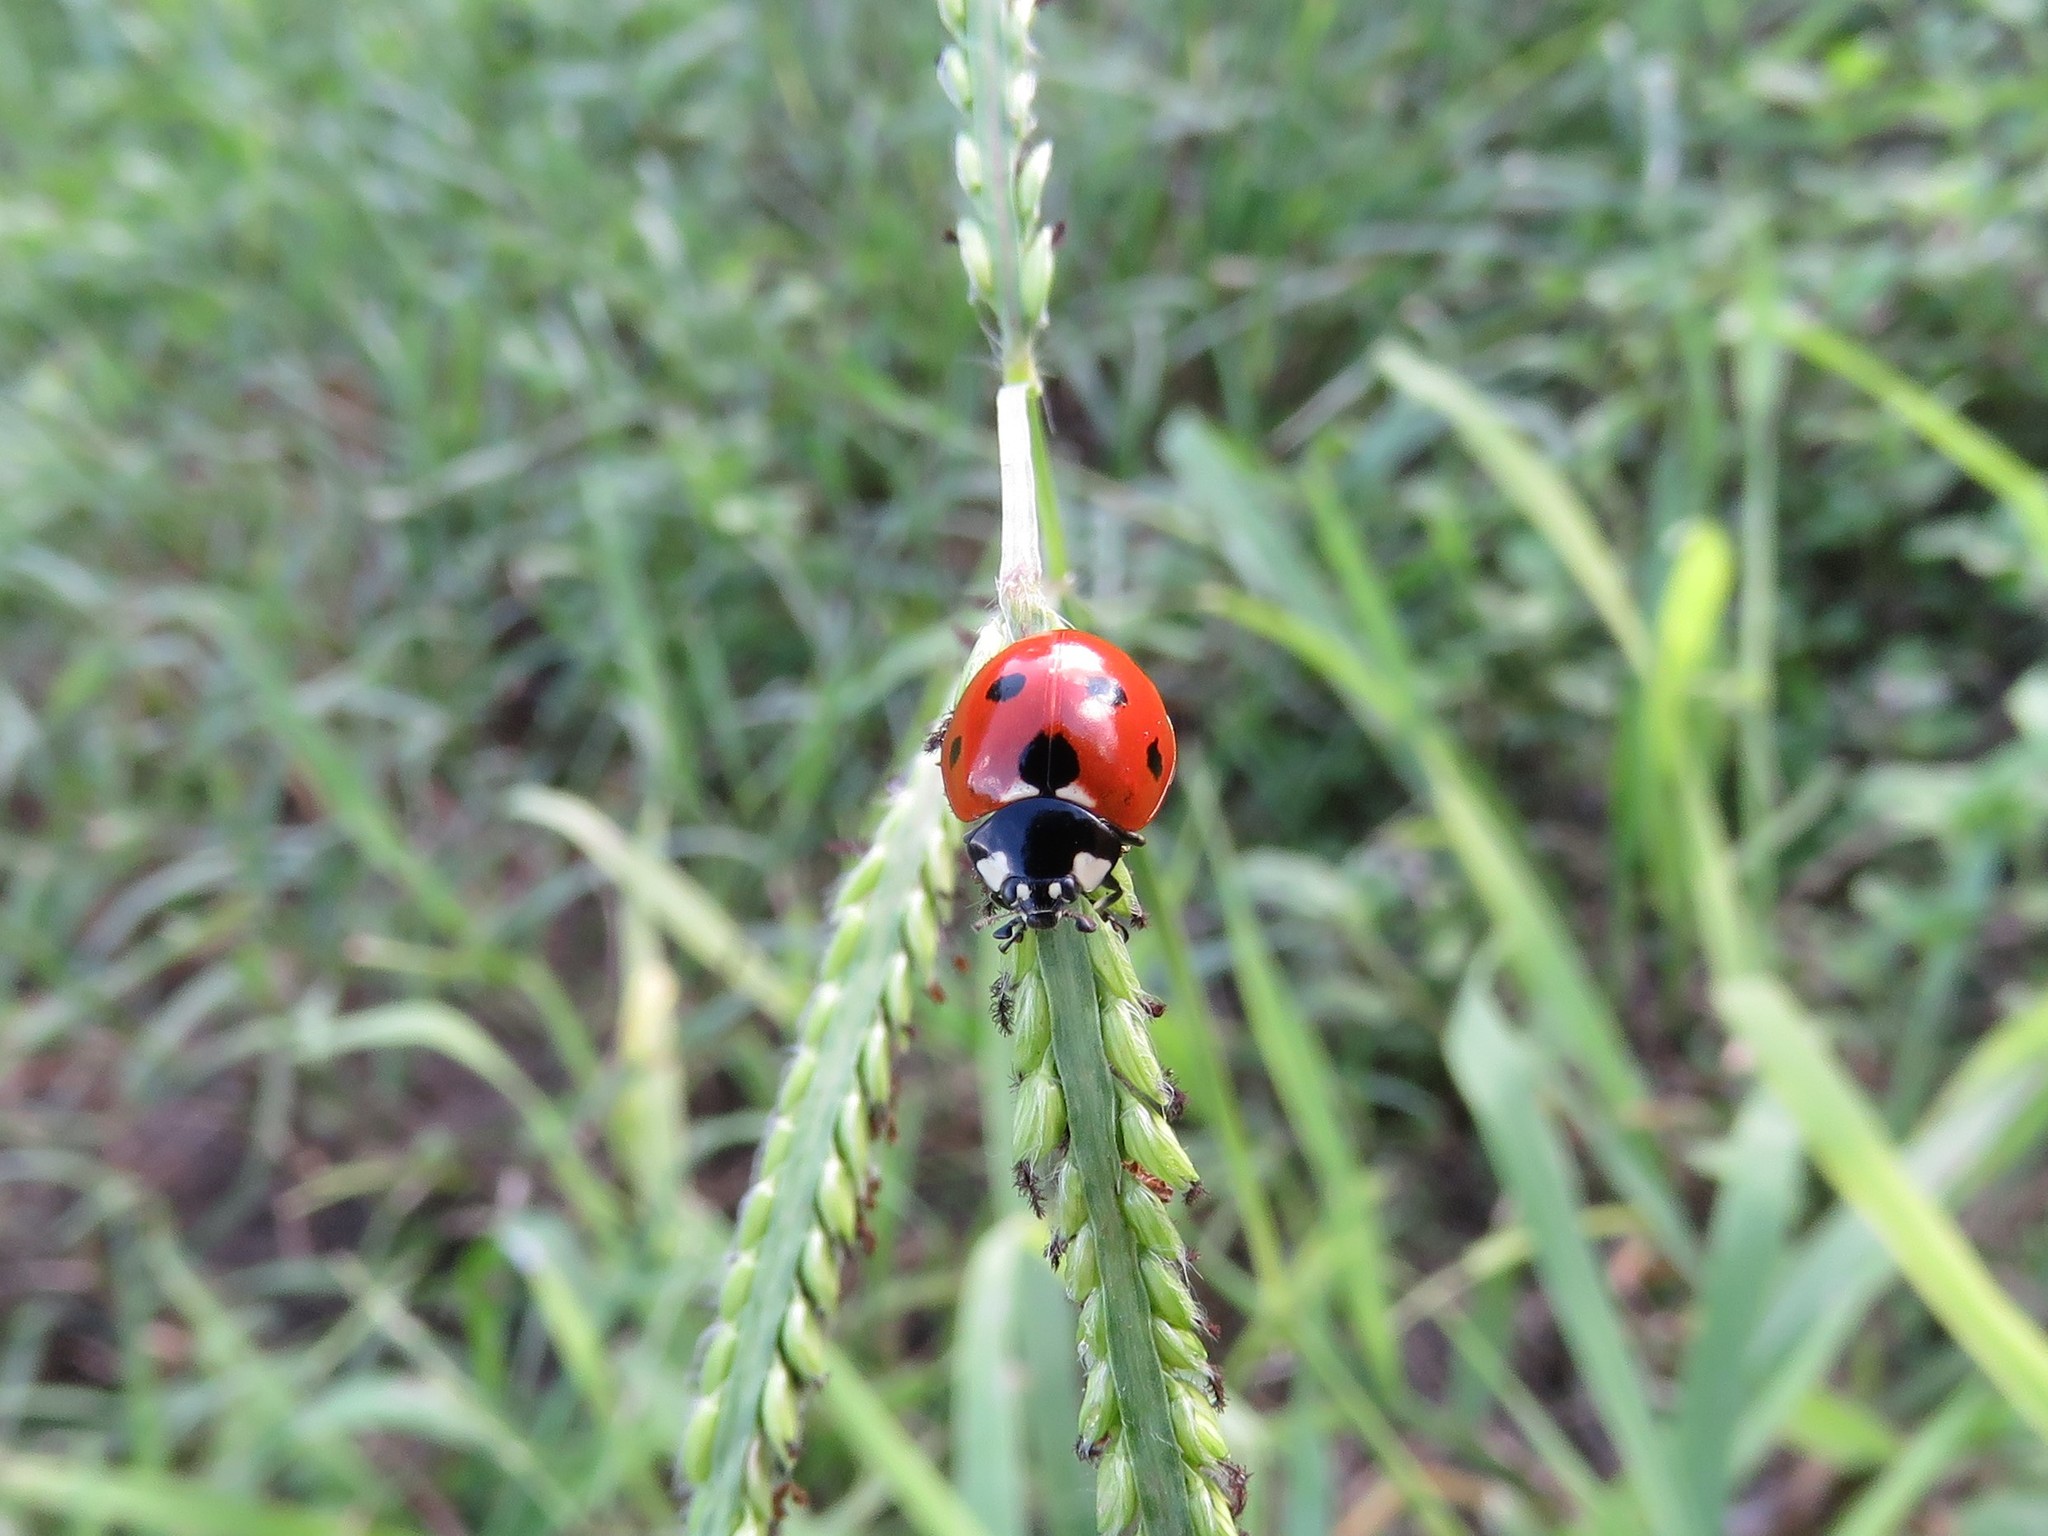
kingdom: Animalia
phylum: Arthropoda
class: Insecta
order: Coleoptera
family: Coccinellidae
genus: Coccinella
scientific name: Coccinella septempunctata
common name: Sevenspotted lady beetle
